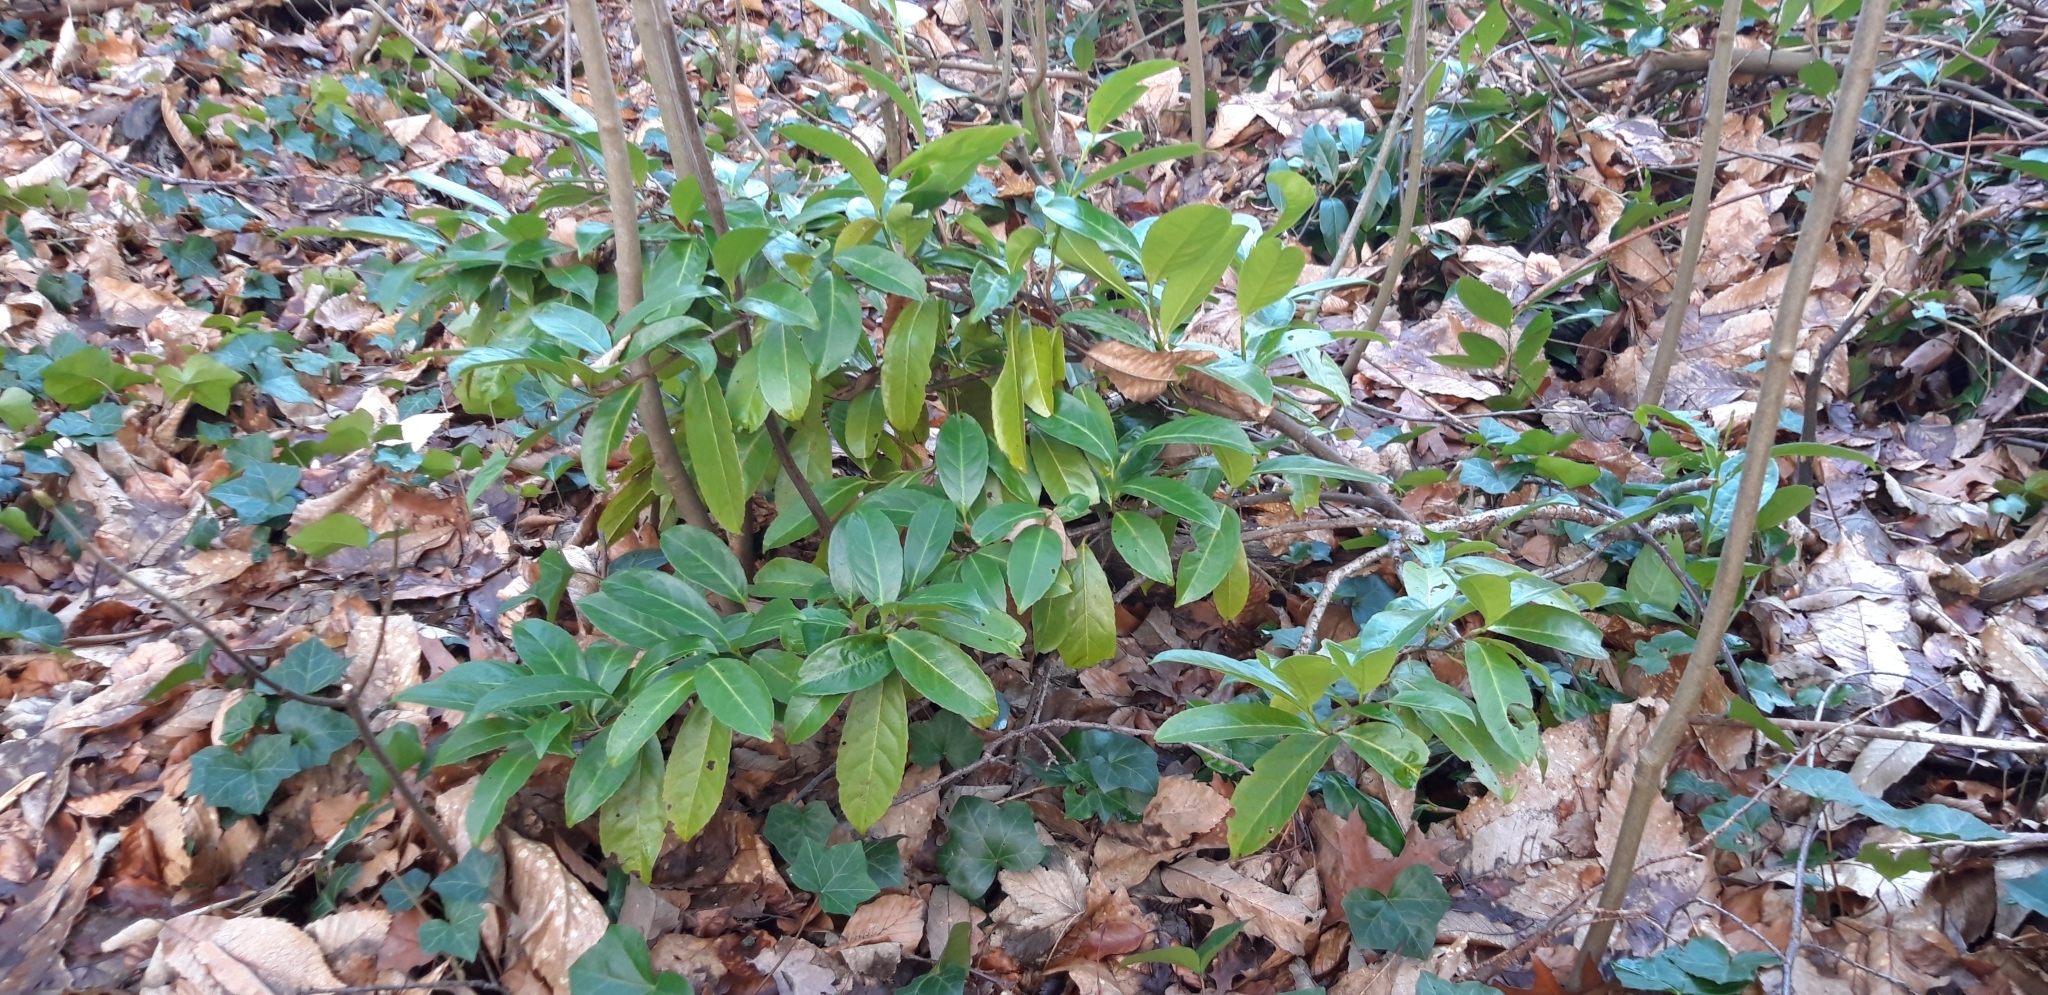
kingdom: Plantae
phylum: Tracheophyta
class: Magnoliopsida
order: Rosales
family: Rosaceae
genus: Prunus
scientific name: Prunus laurocerasus
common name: Cherry laurel
